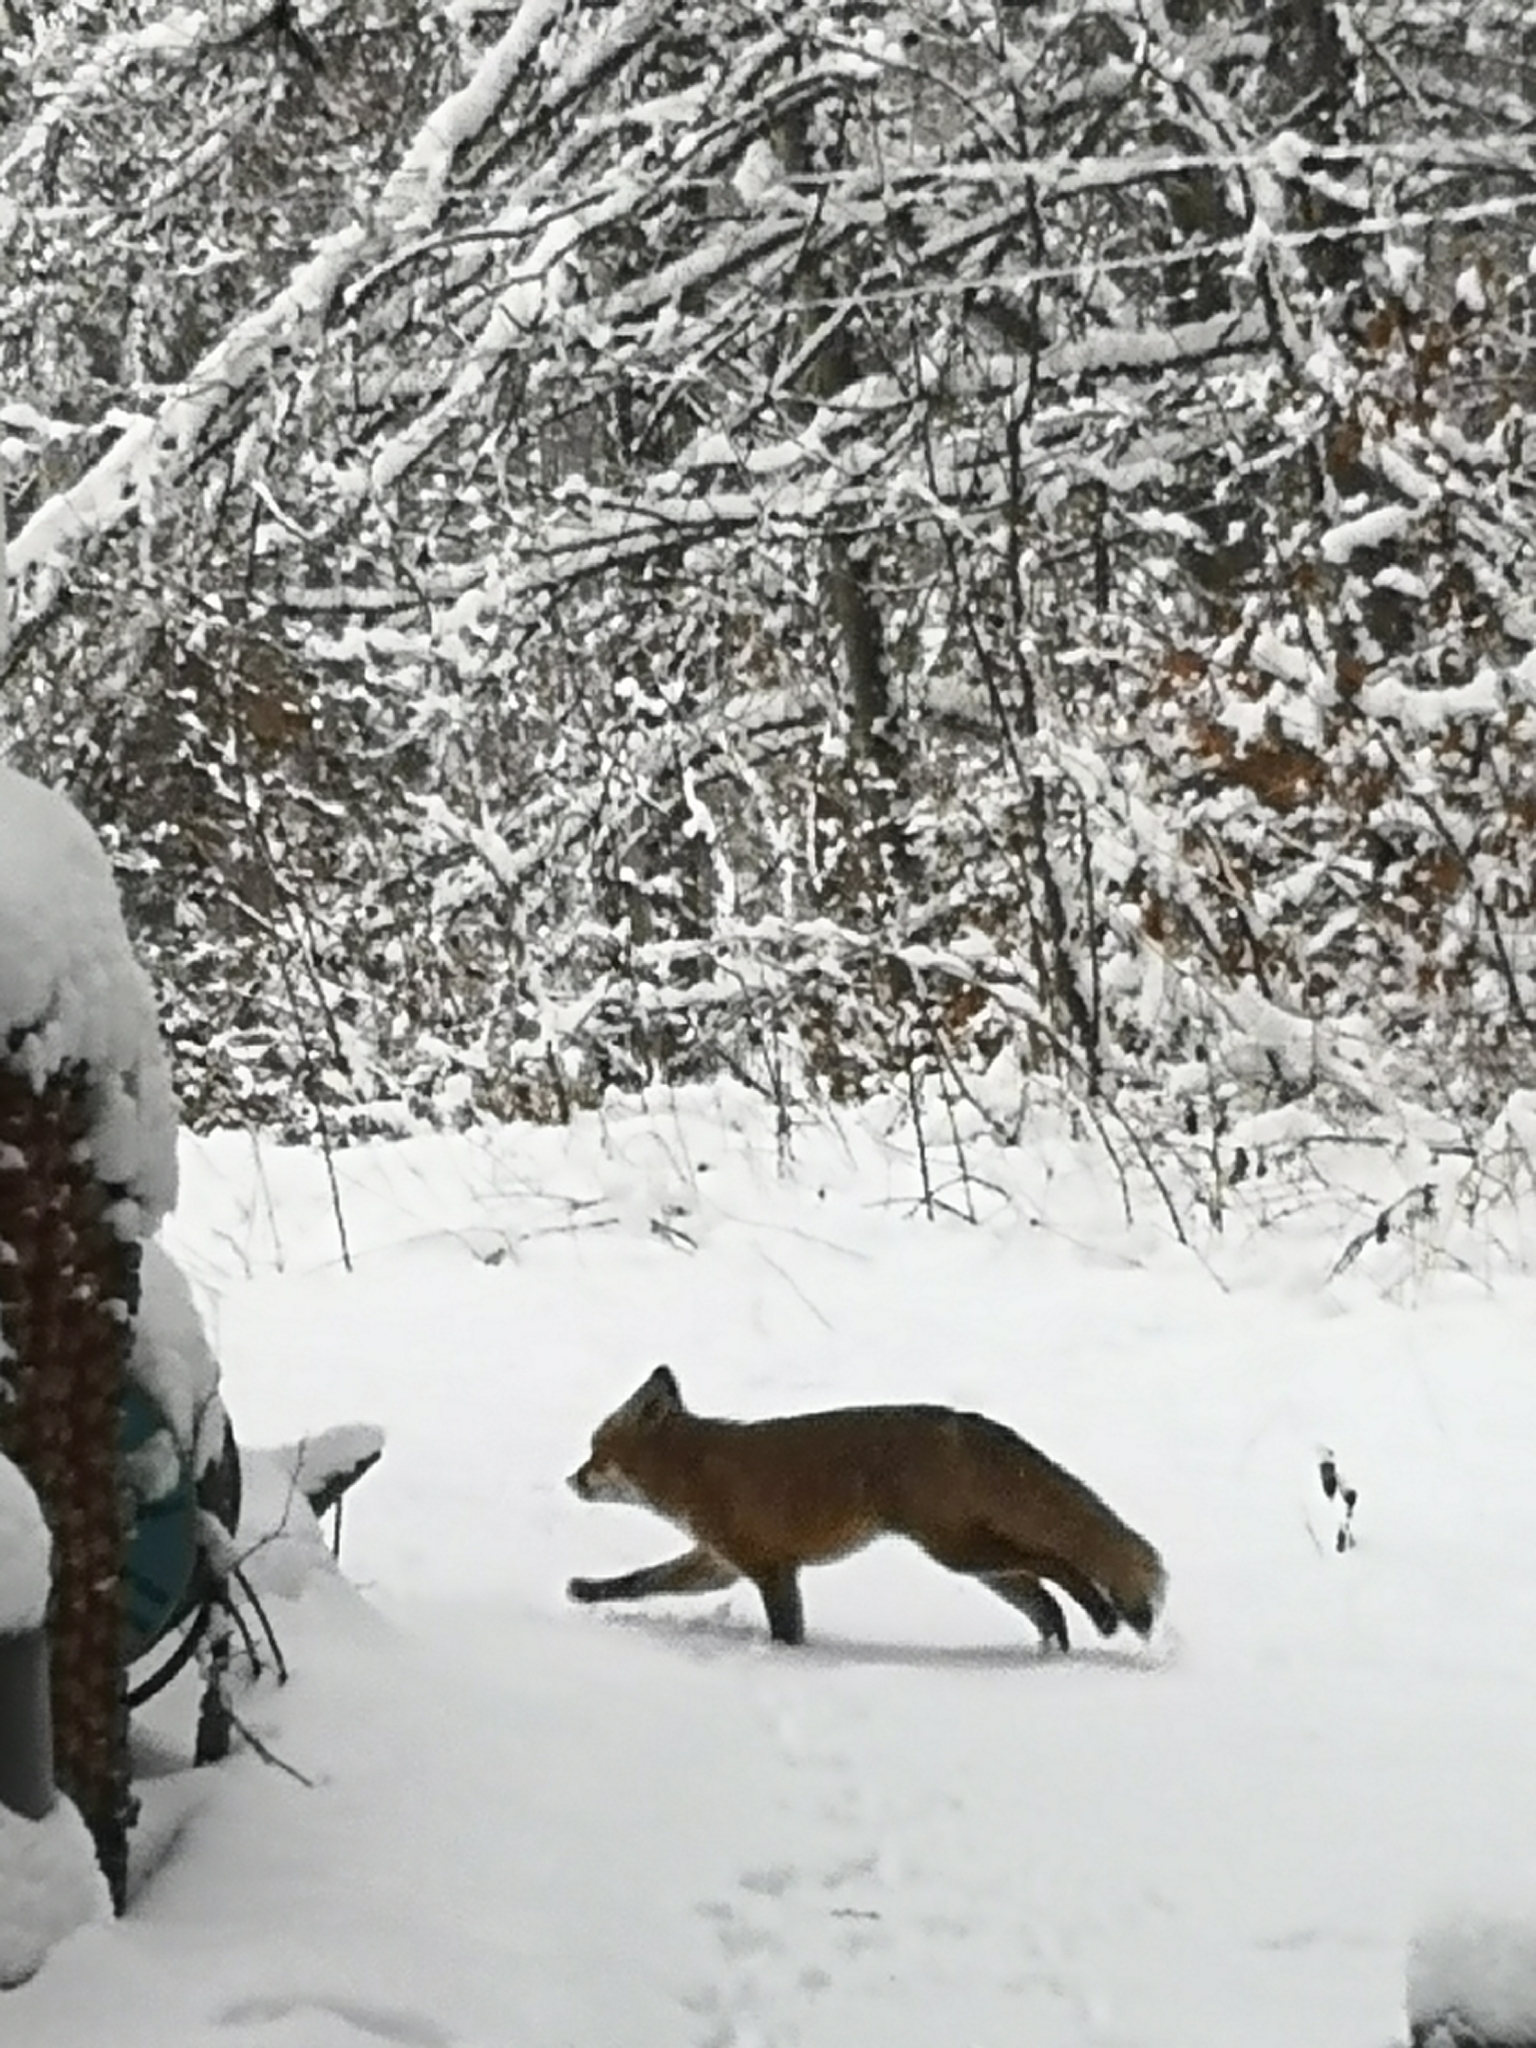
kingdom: Animalia
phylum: Chordata
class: Mammalia
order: Carnivora
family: Canidae
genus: Vulpes
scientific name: Vulpes vulpes
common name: Red fox
